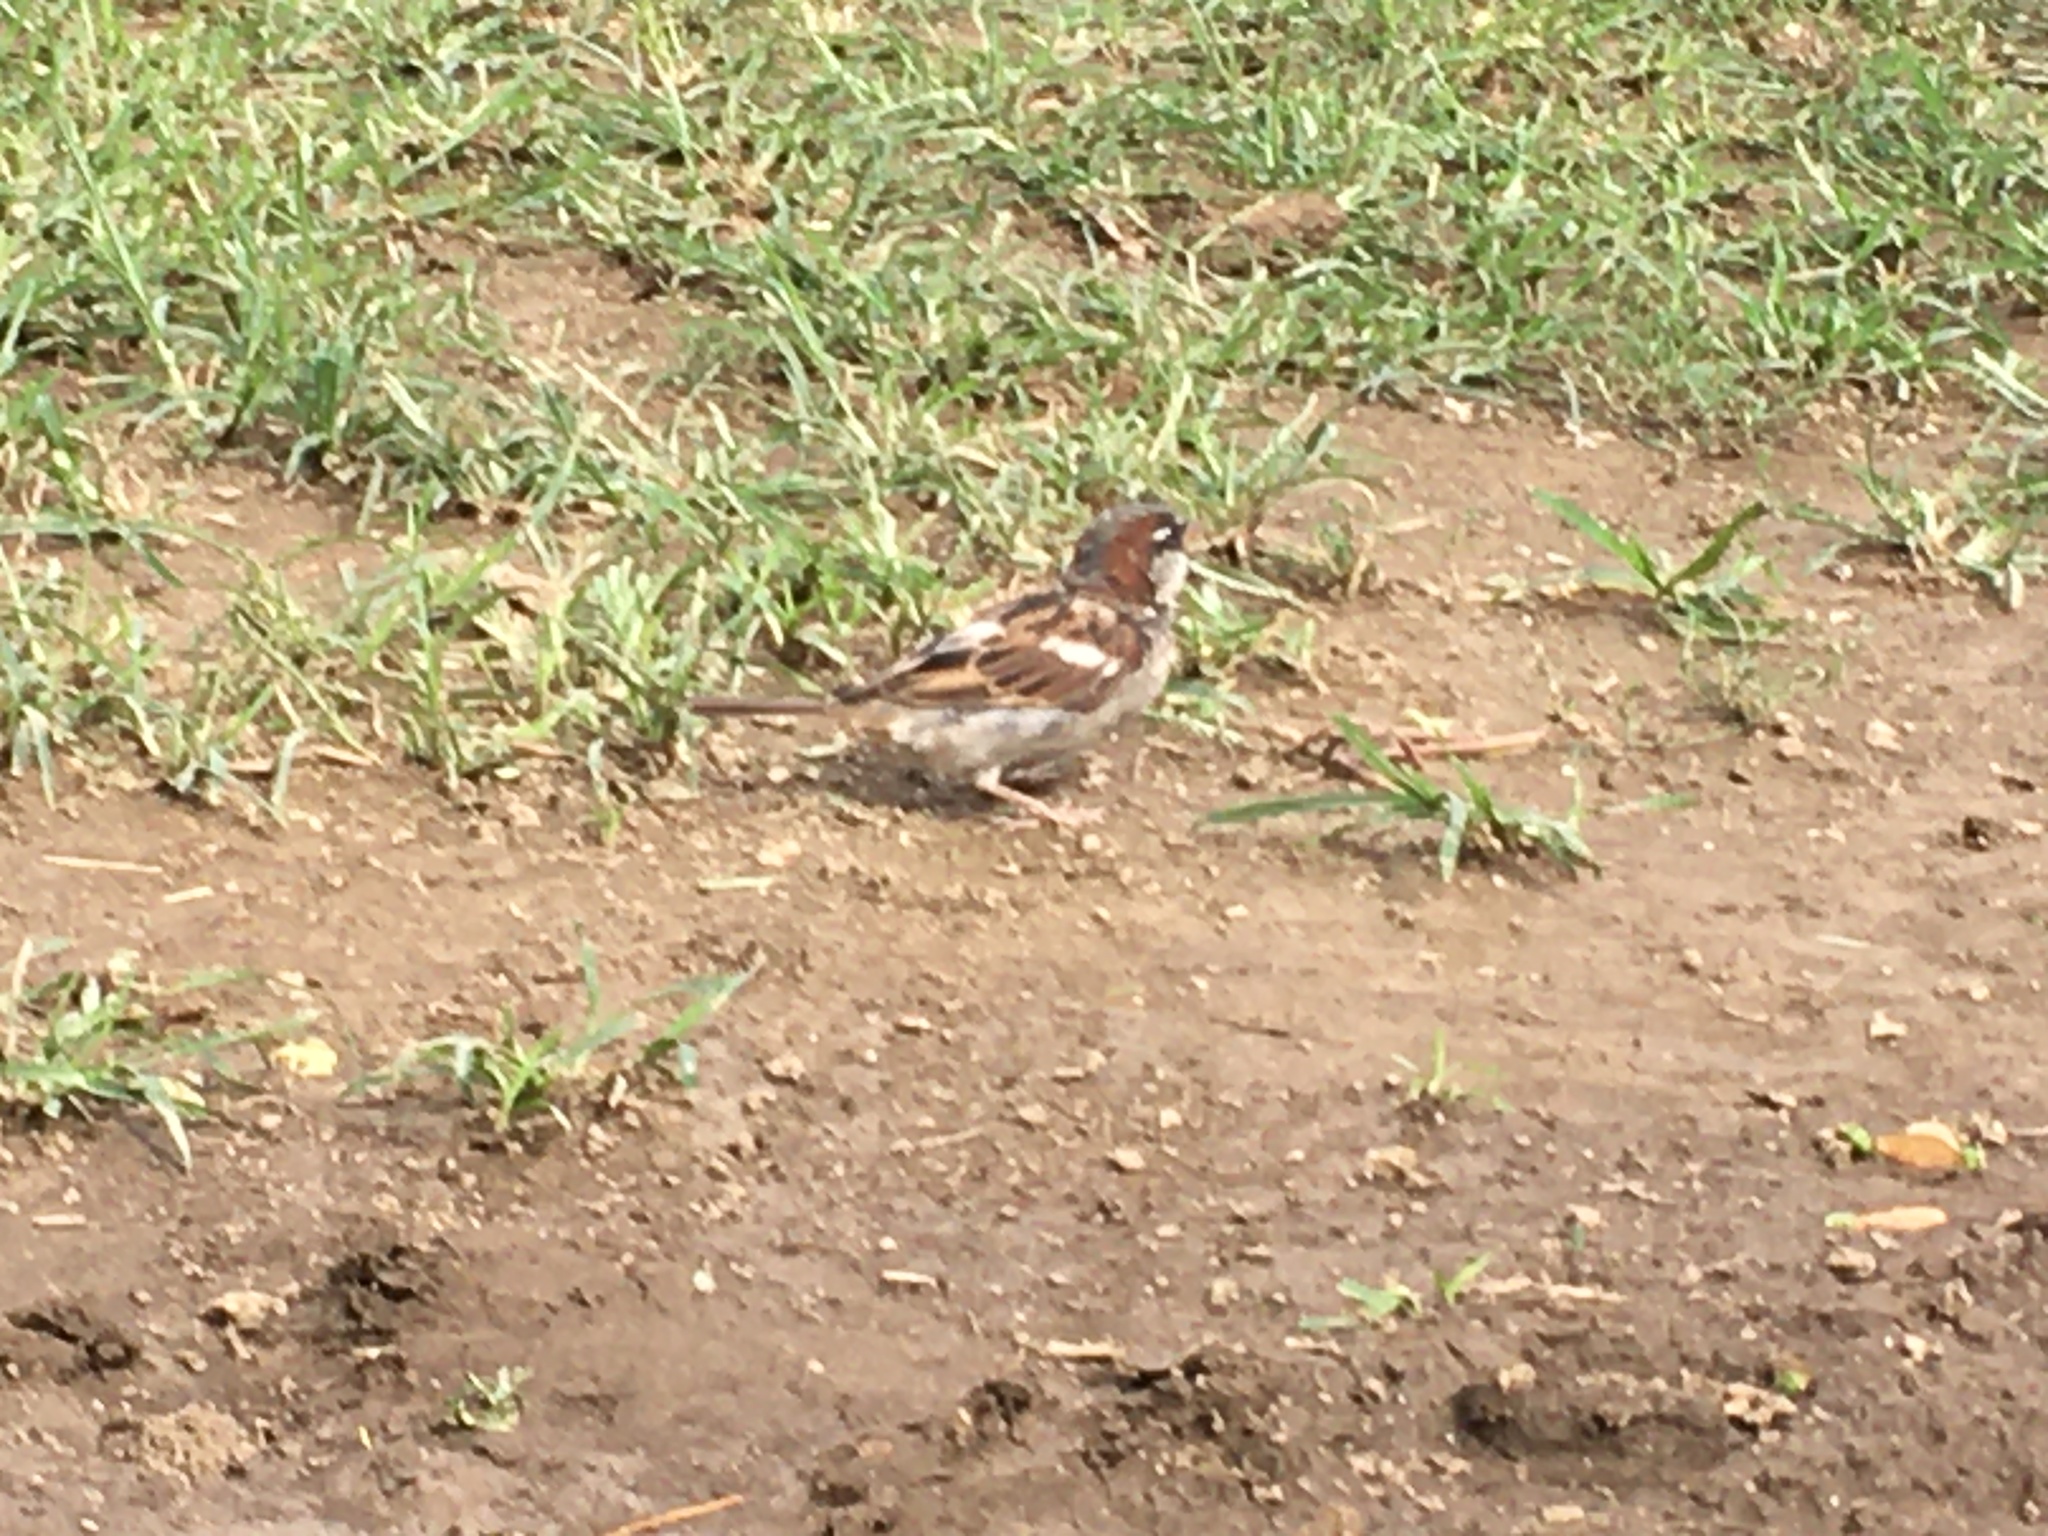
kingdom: Animalia
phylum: Chordata
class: Aves
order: Passeriformes
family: Passeridae
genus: Passer
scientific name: Passer domesticus
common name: House sparrow
